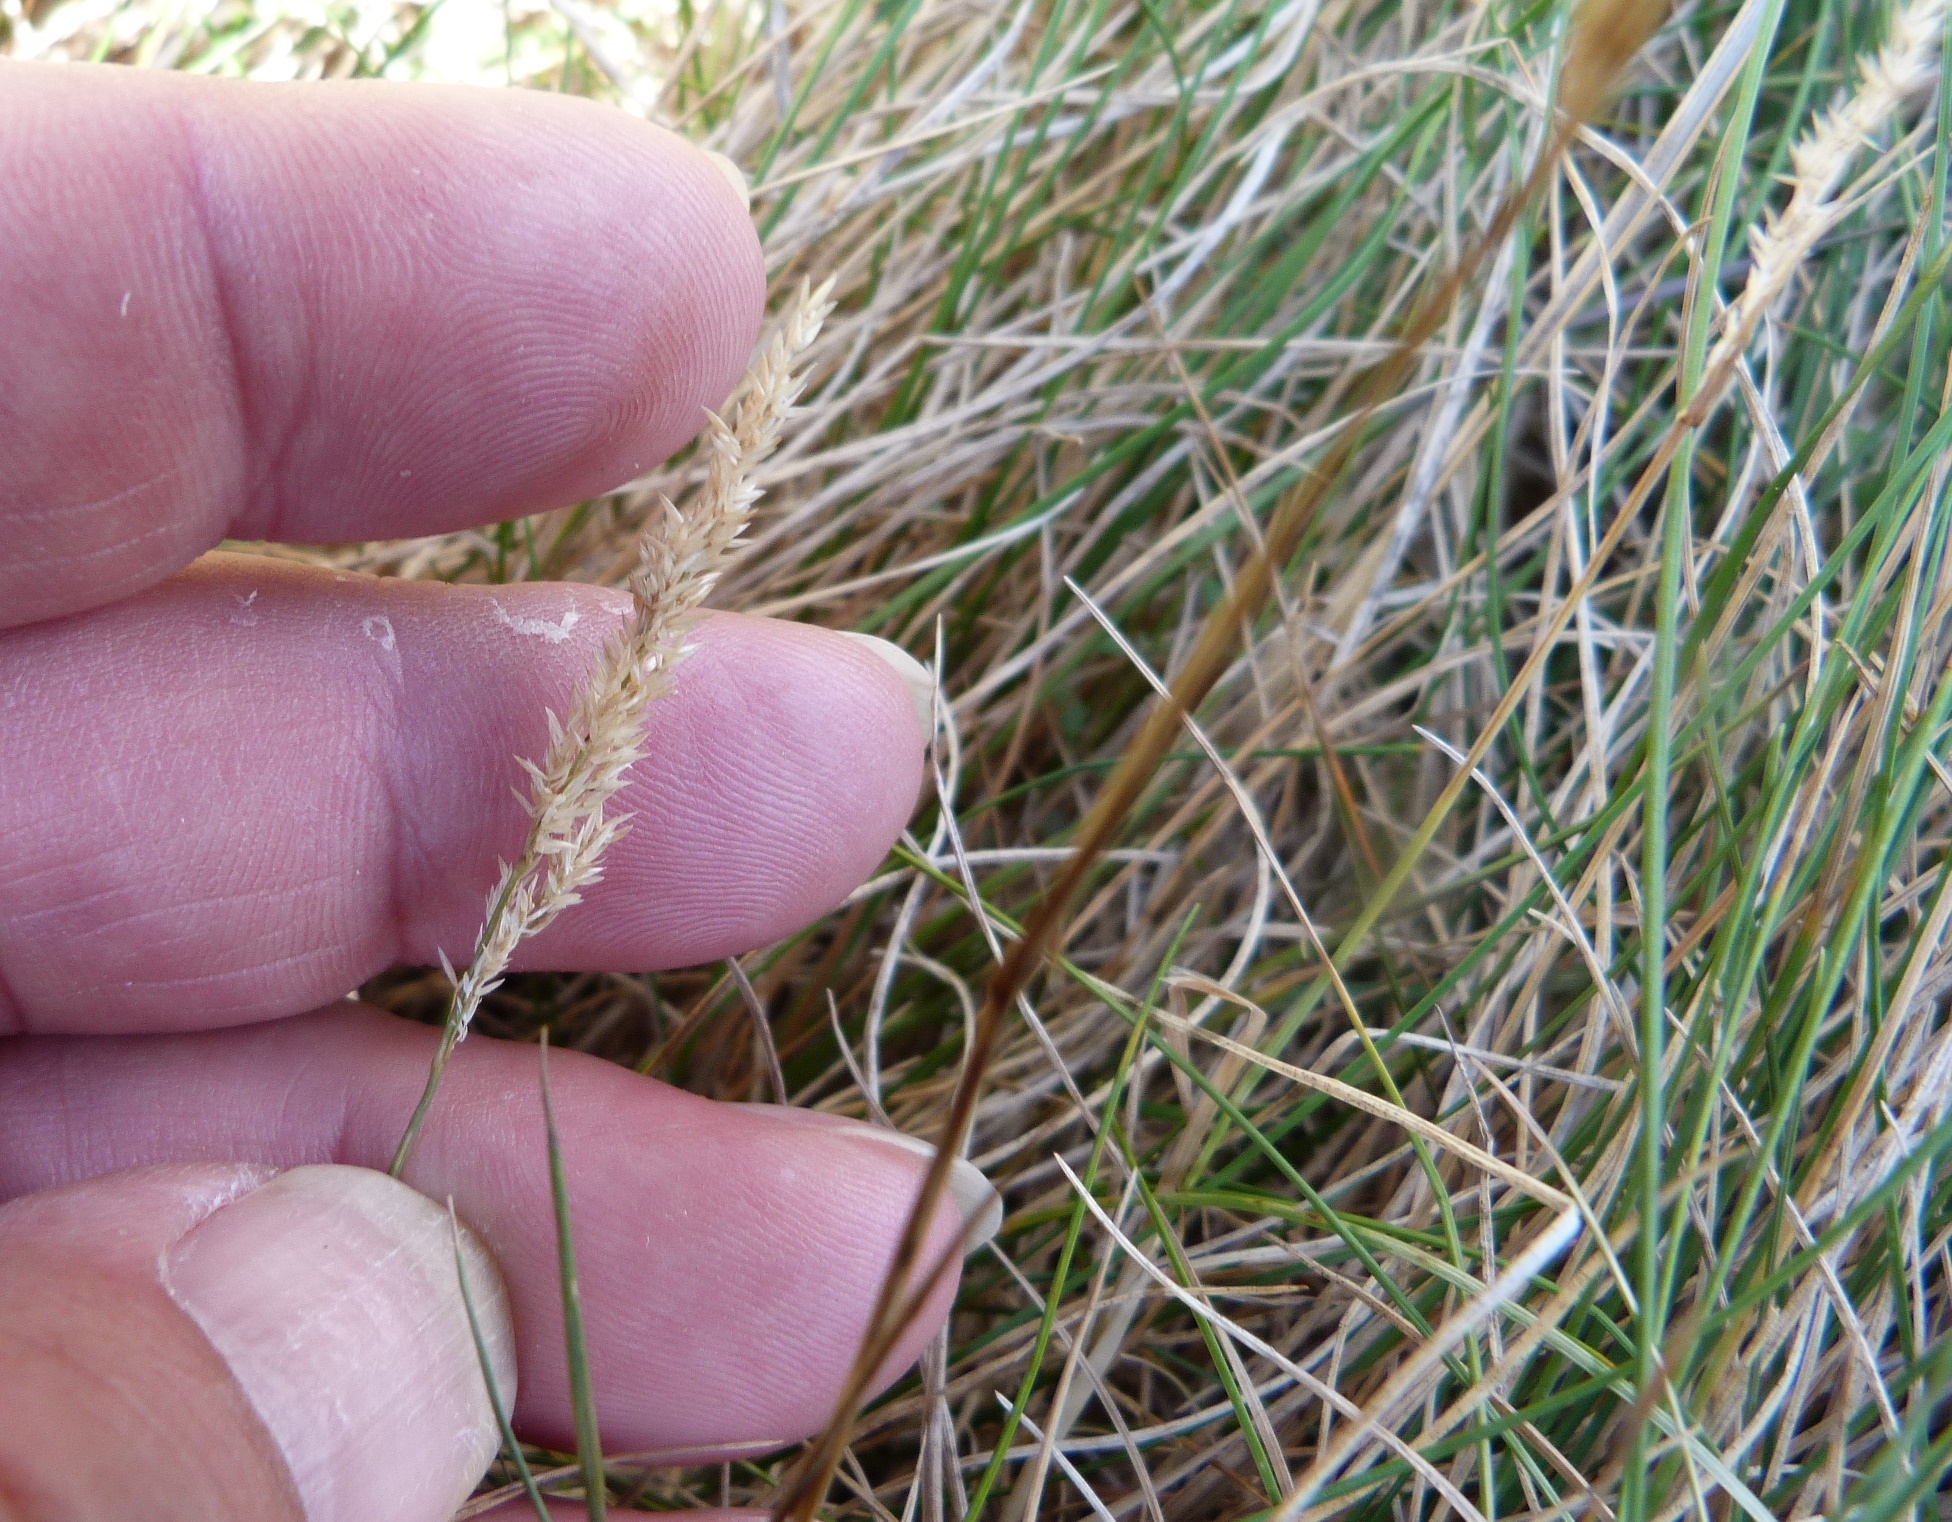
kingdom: Plantae
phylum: Tracheophyta
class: Liliopsida
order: Poales
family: Poaceae
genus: Agrostis
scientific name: Agrostis stolonifera
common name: Creeping bentgrass
